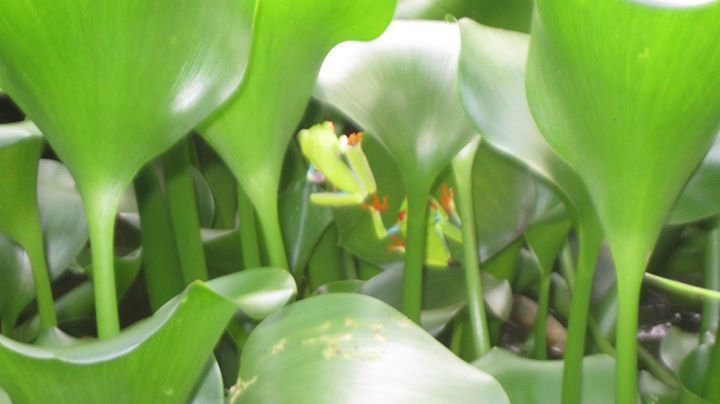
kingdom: Animalia
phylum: Chordata
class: Amphibia
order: Anura
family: Phyllomedusidae
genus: Agalychnis
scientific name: Agalychnis callidryas
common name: Red-eyed treefrog
